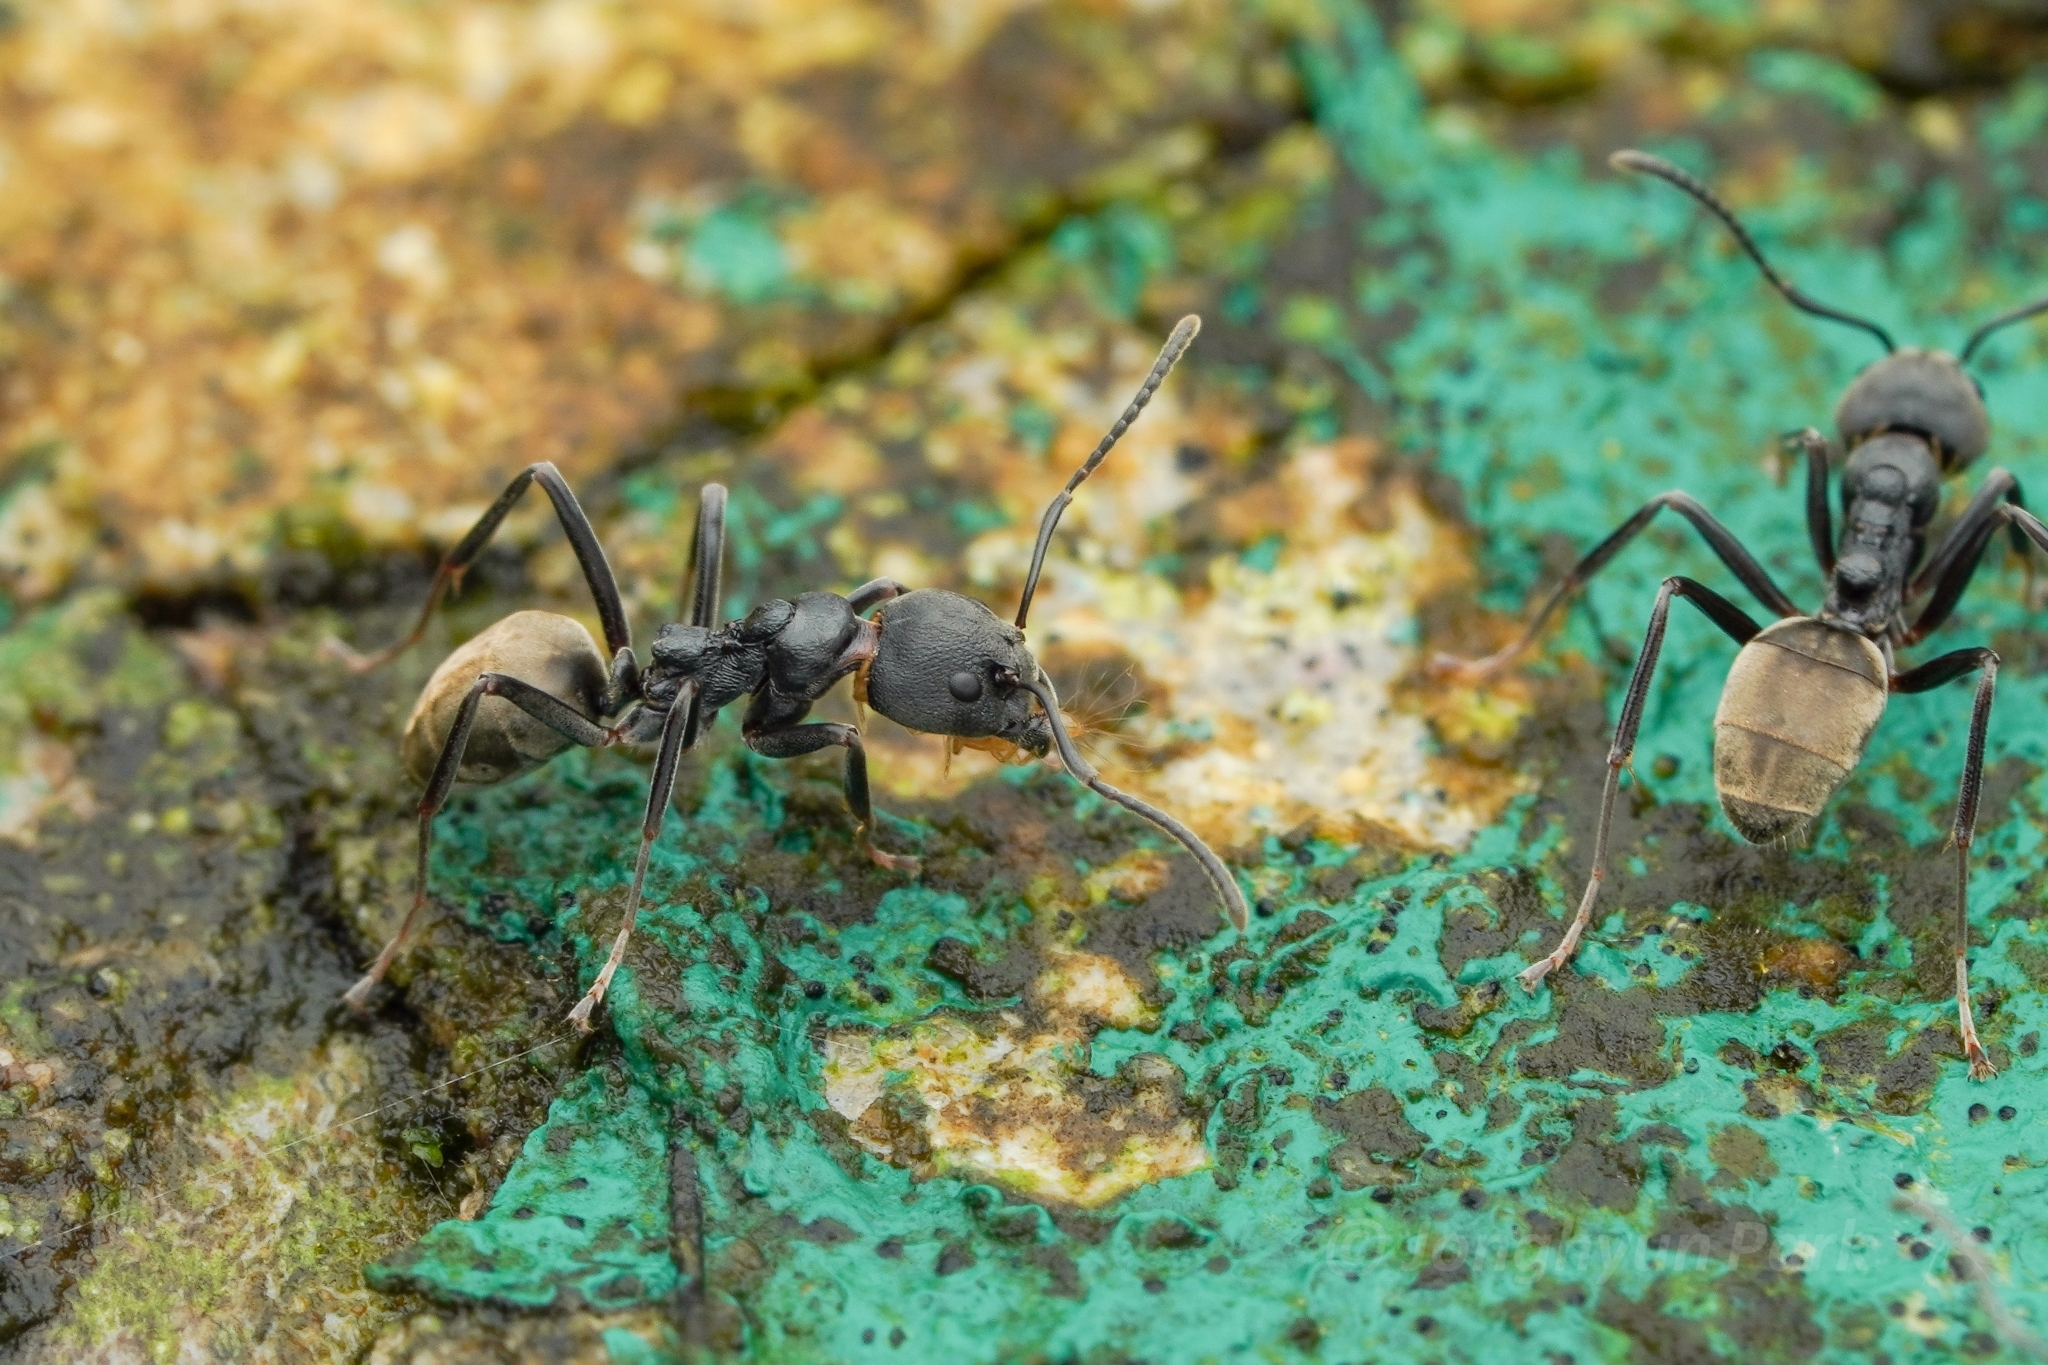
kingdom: Animalia
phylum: Arthropoda
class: Insecta
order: Hymenoptera
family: Formicidae
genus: Dolichoderus
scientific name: Dolichoderus
